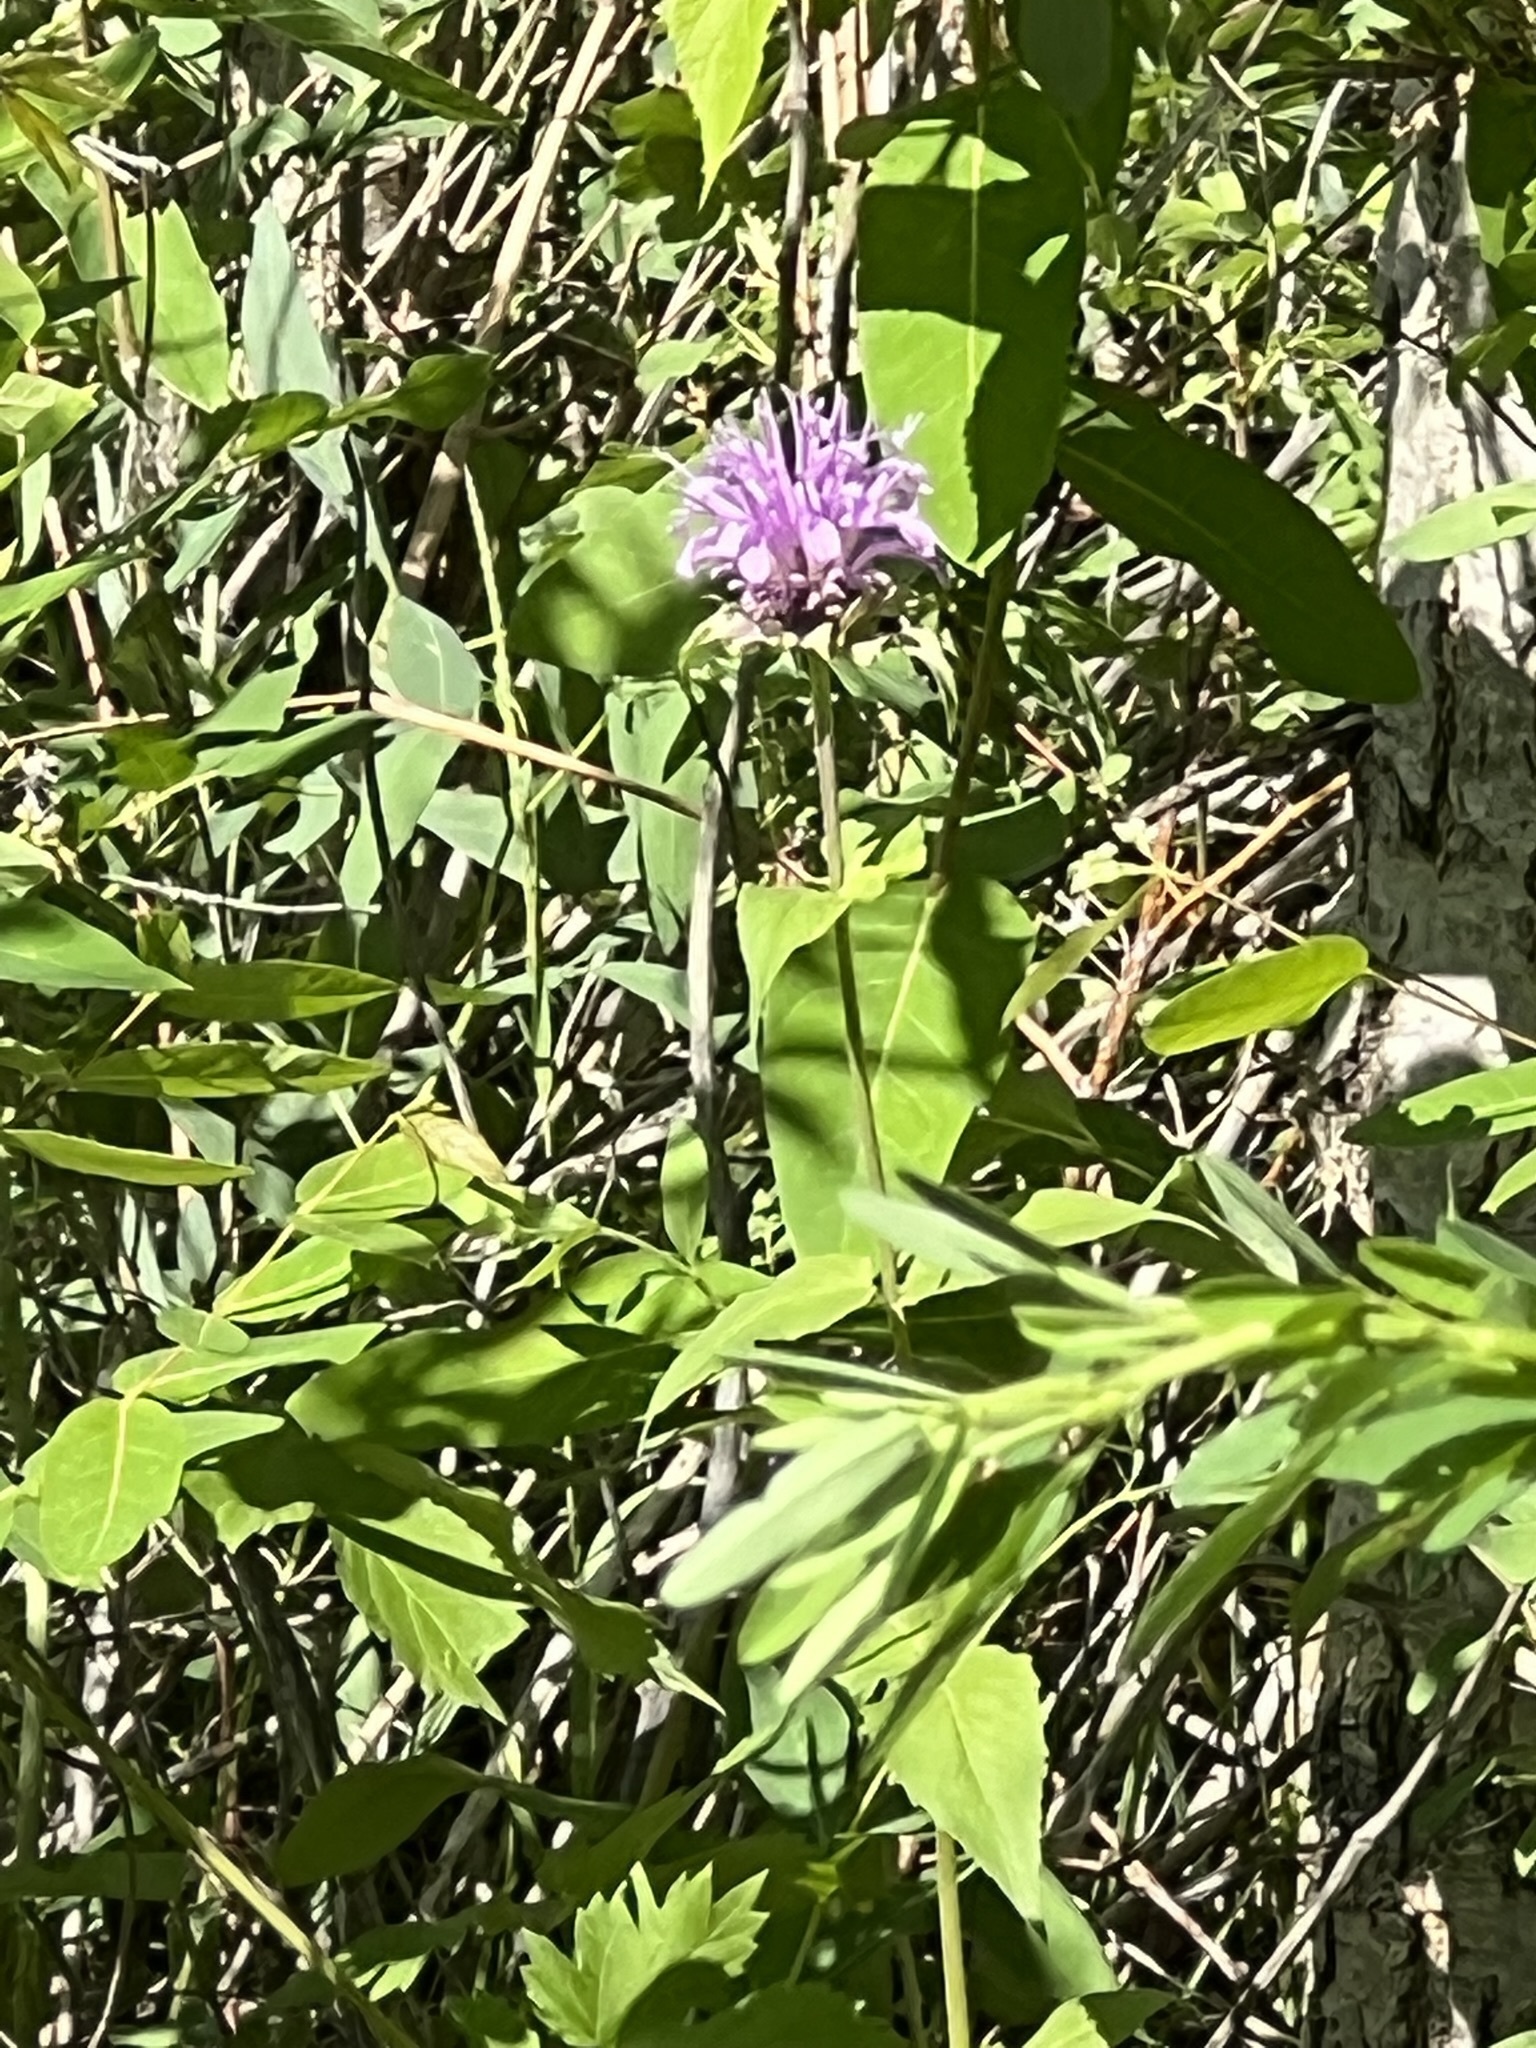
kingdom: Plantae
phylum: Tracheophyta
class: Magnoliopsida
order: Lamiales
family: Lamiaceae
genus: Monarda
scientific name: Monarda fistulosa
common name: Purple beebalm
